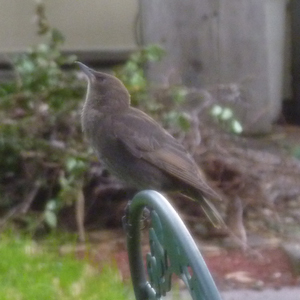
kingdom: Animalia
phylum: Chordata
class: Aves
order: Passeriformes
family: Sturnidae
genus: Sturnus
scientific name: Sturnus vulgaris
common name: Common starling
